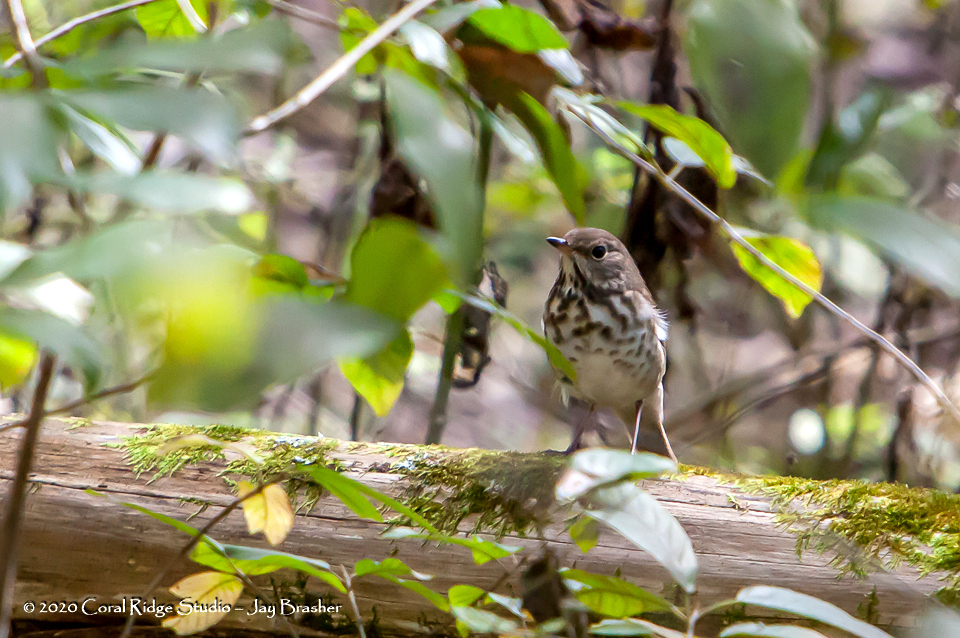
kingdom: Animalia
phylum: Chordata
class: Aves
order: Passeriformes
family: Turdidae
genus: Catharus
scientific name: Catharus guttatus
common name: Hermit thrush
